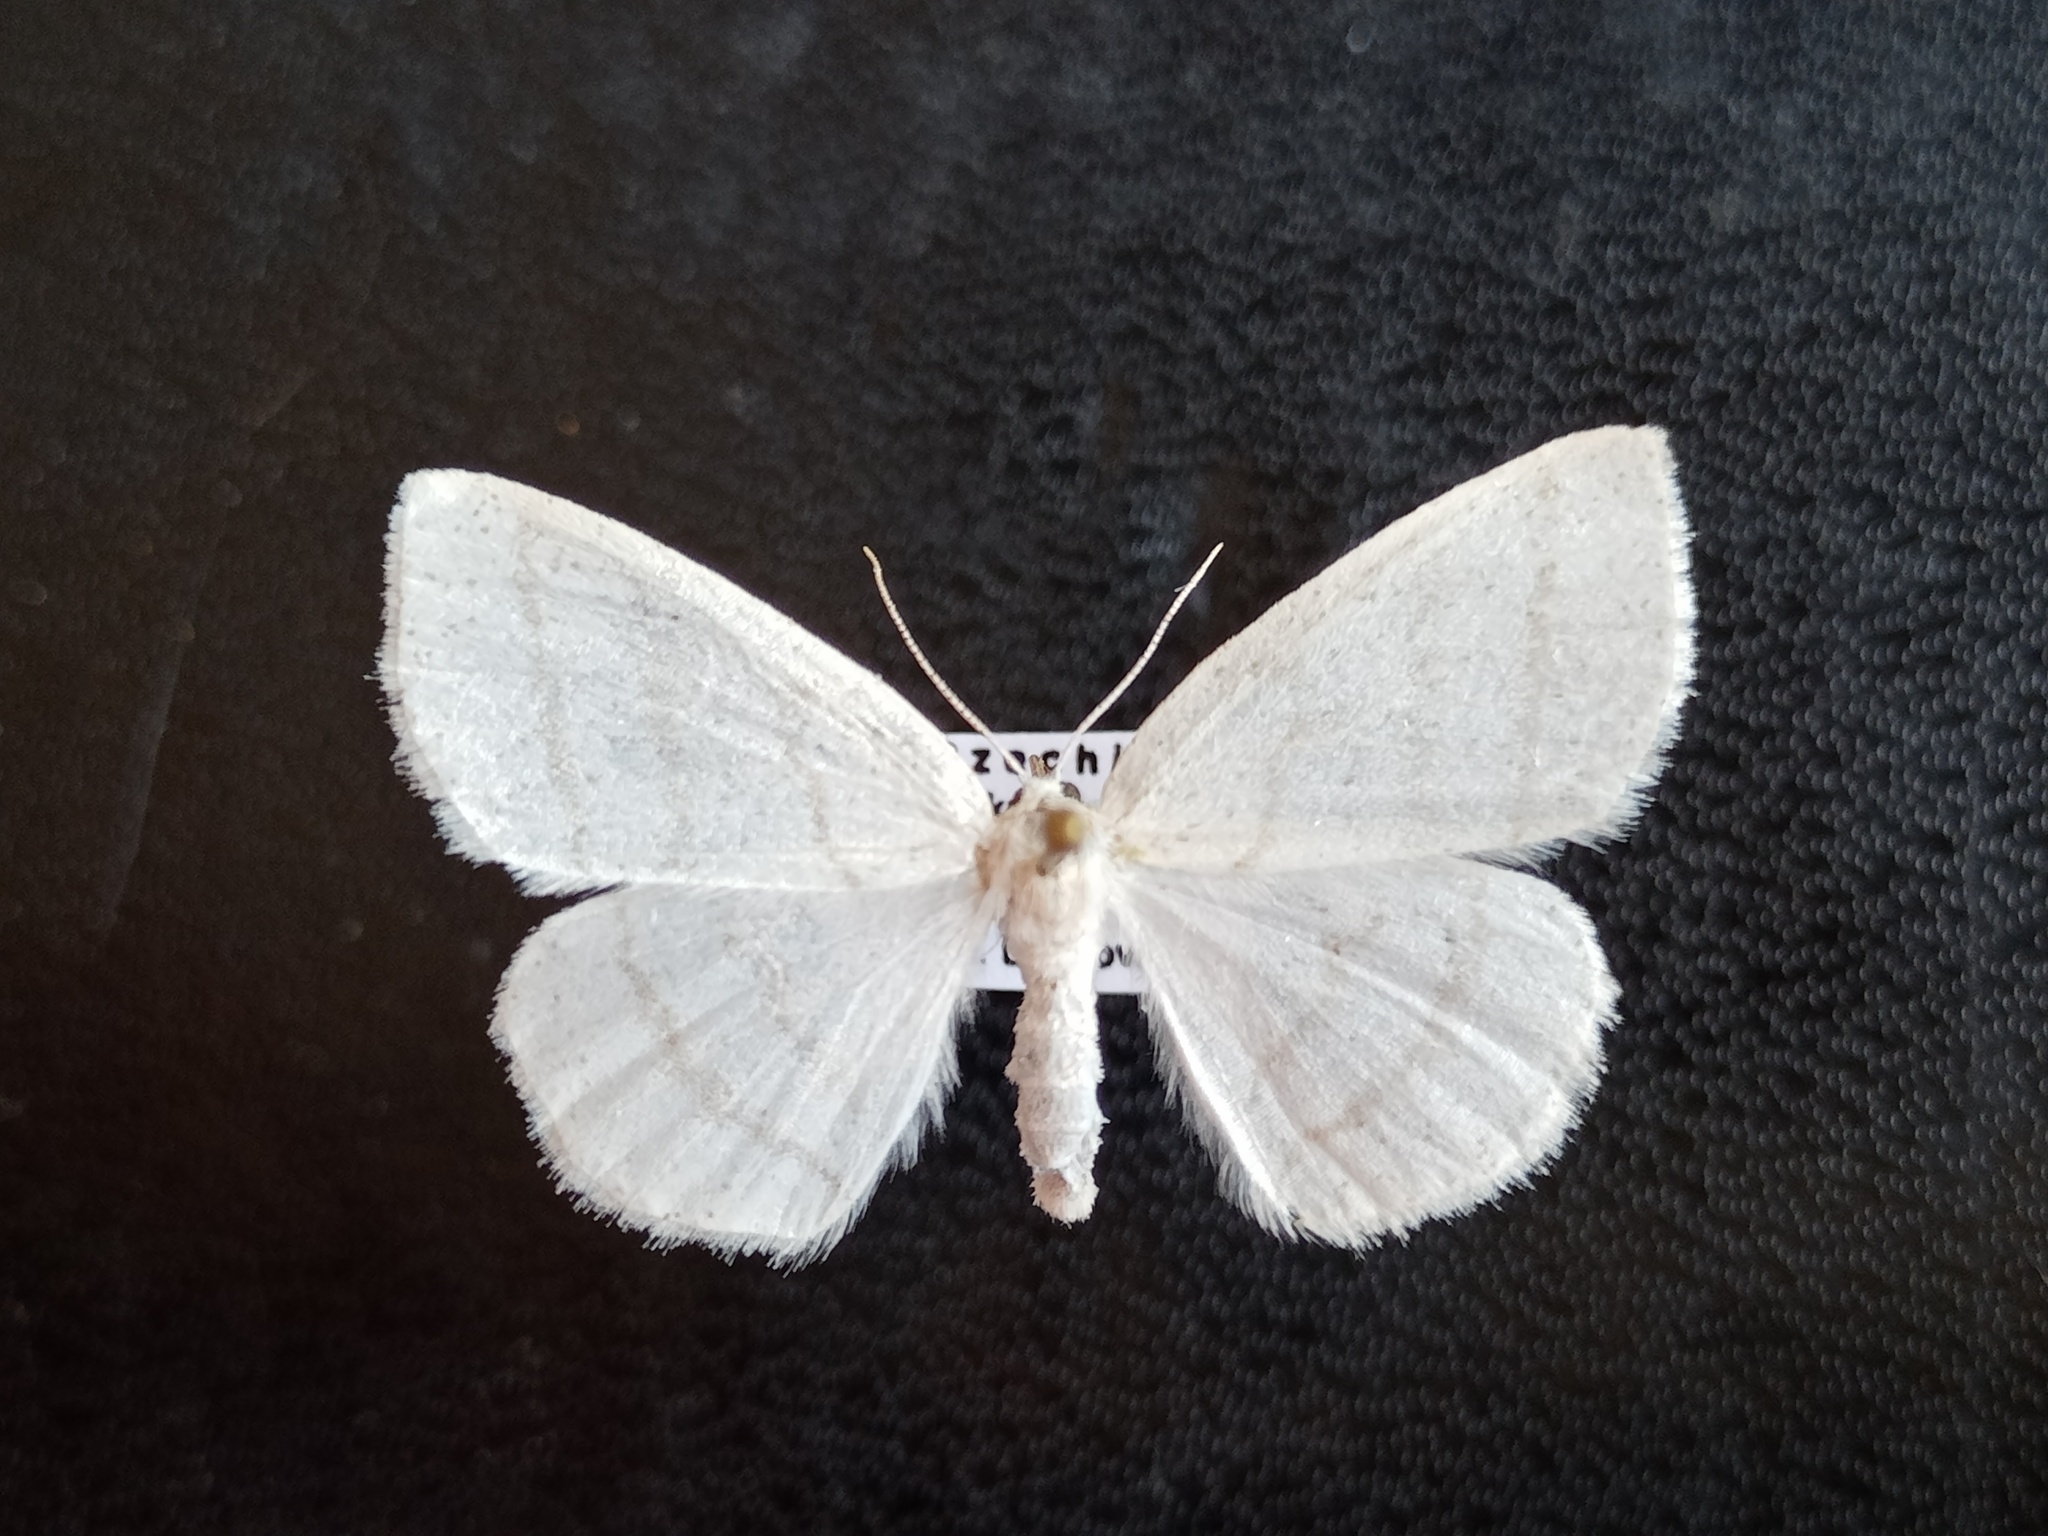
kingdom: Animalia
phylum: Arthropoda
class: Insecta
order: Lepidoptera
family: Geometridae
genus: Cabera
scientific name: Cabera pusaria
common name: Common white wave
